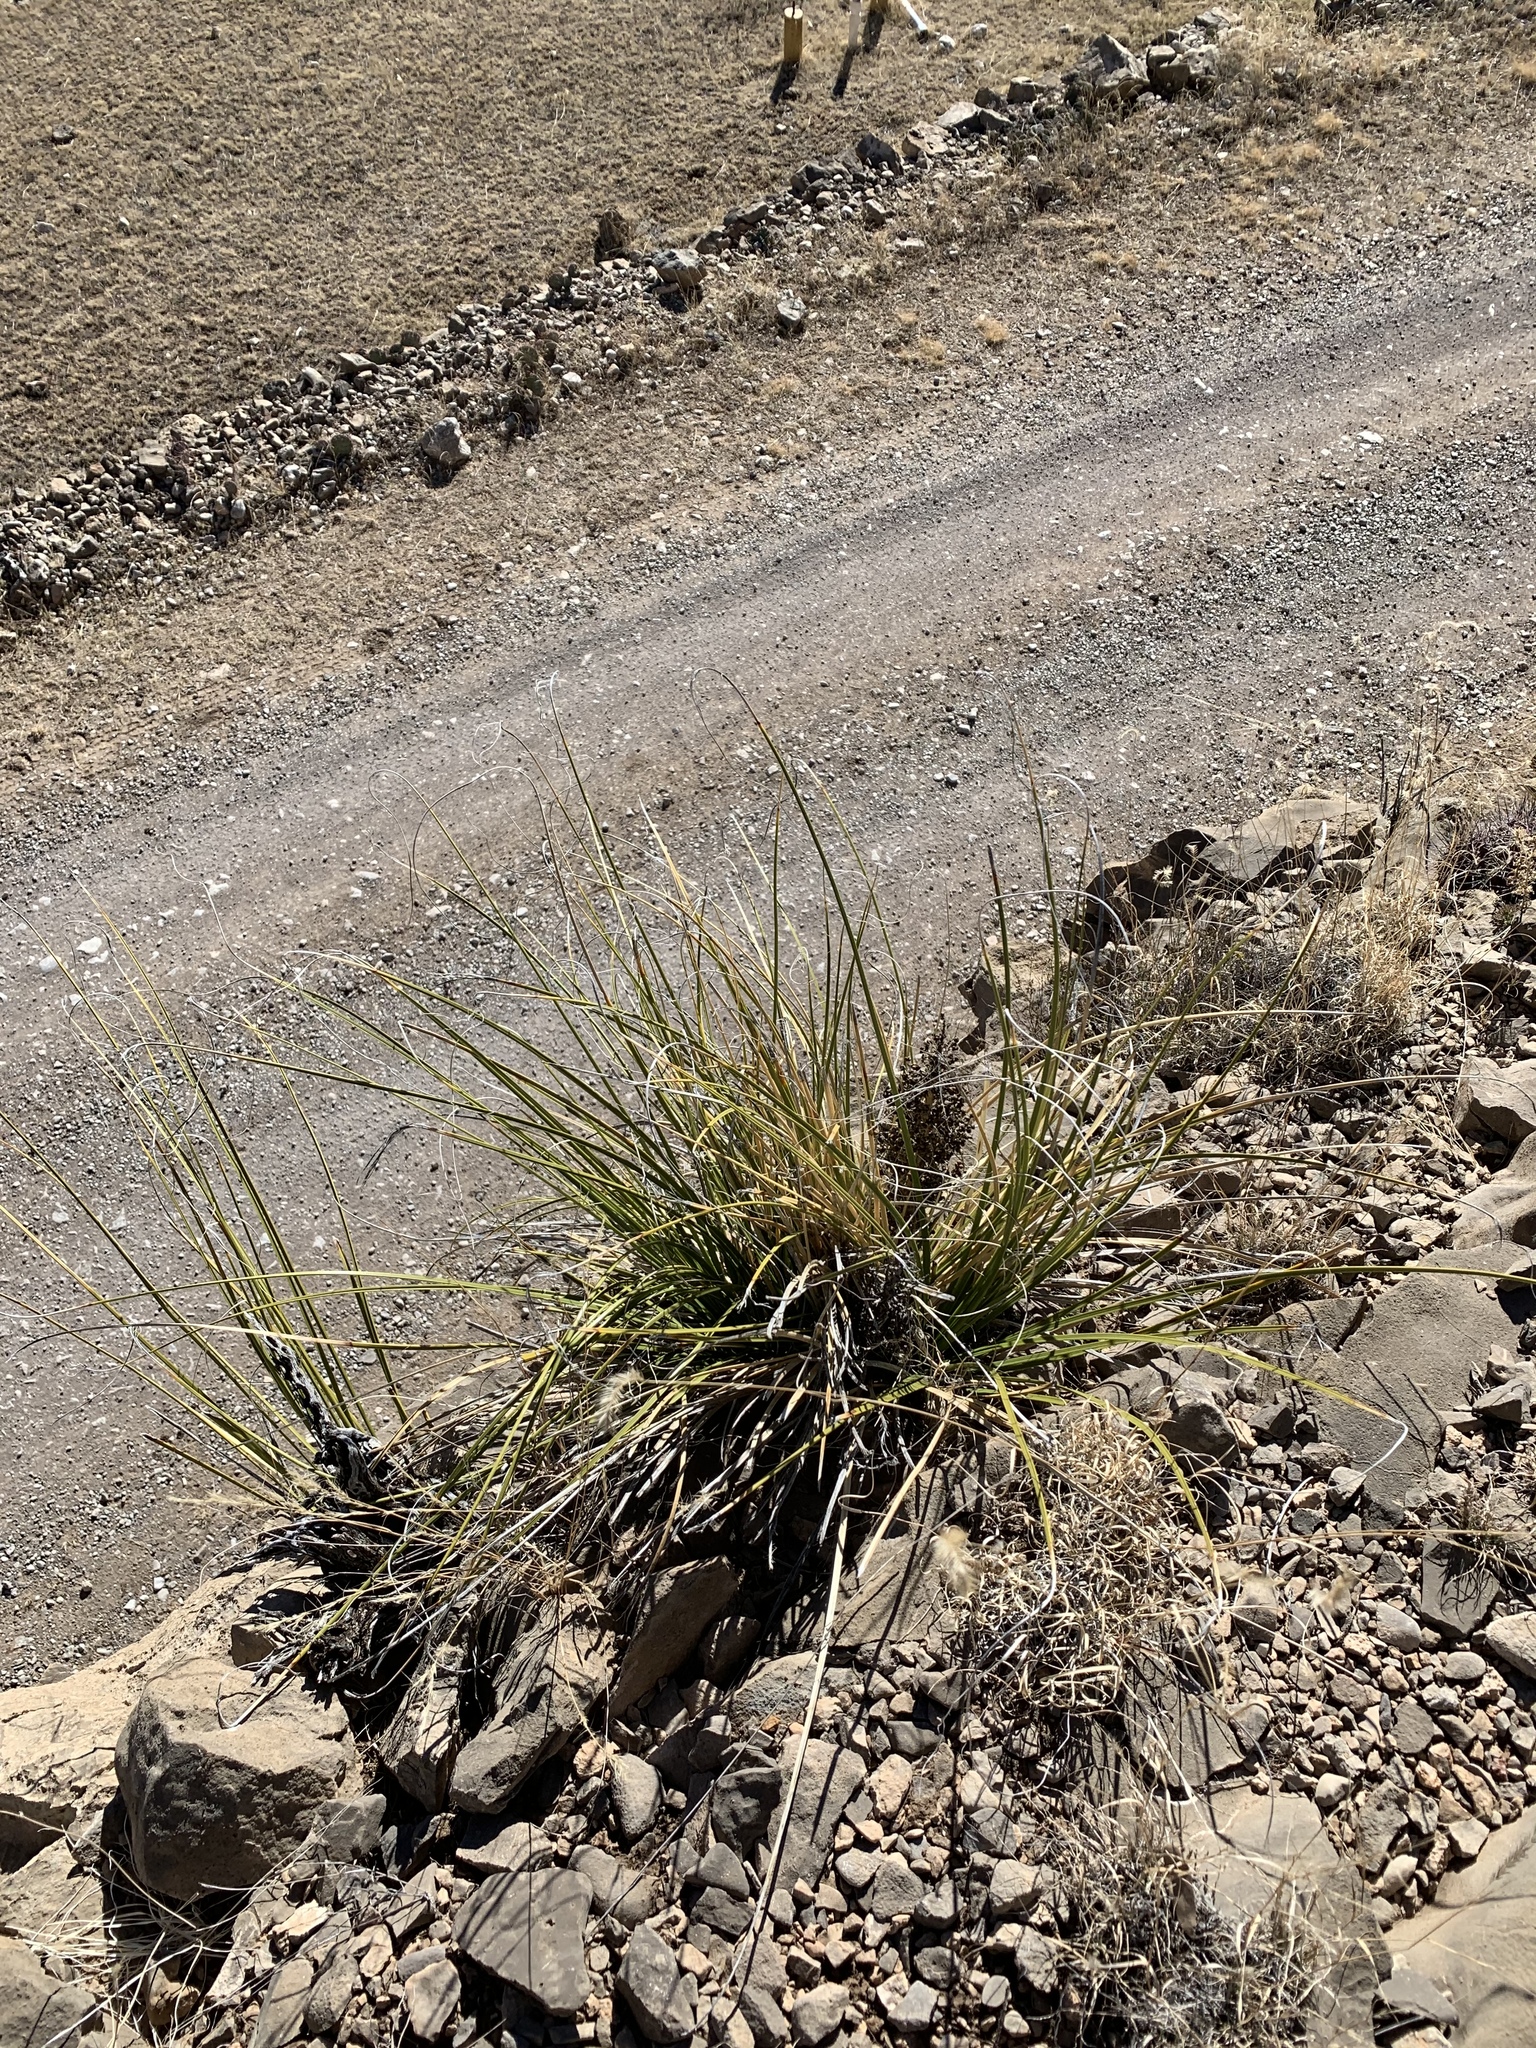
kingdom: Plantae
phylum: Tracheophyta
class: Liliopsida
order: Asparagales
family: Asparagaceae
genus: Nolina
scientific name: Nolina texana
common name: Texas sacahuiste
